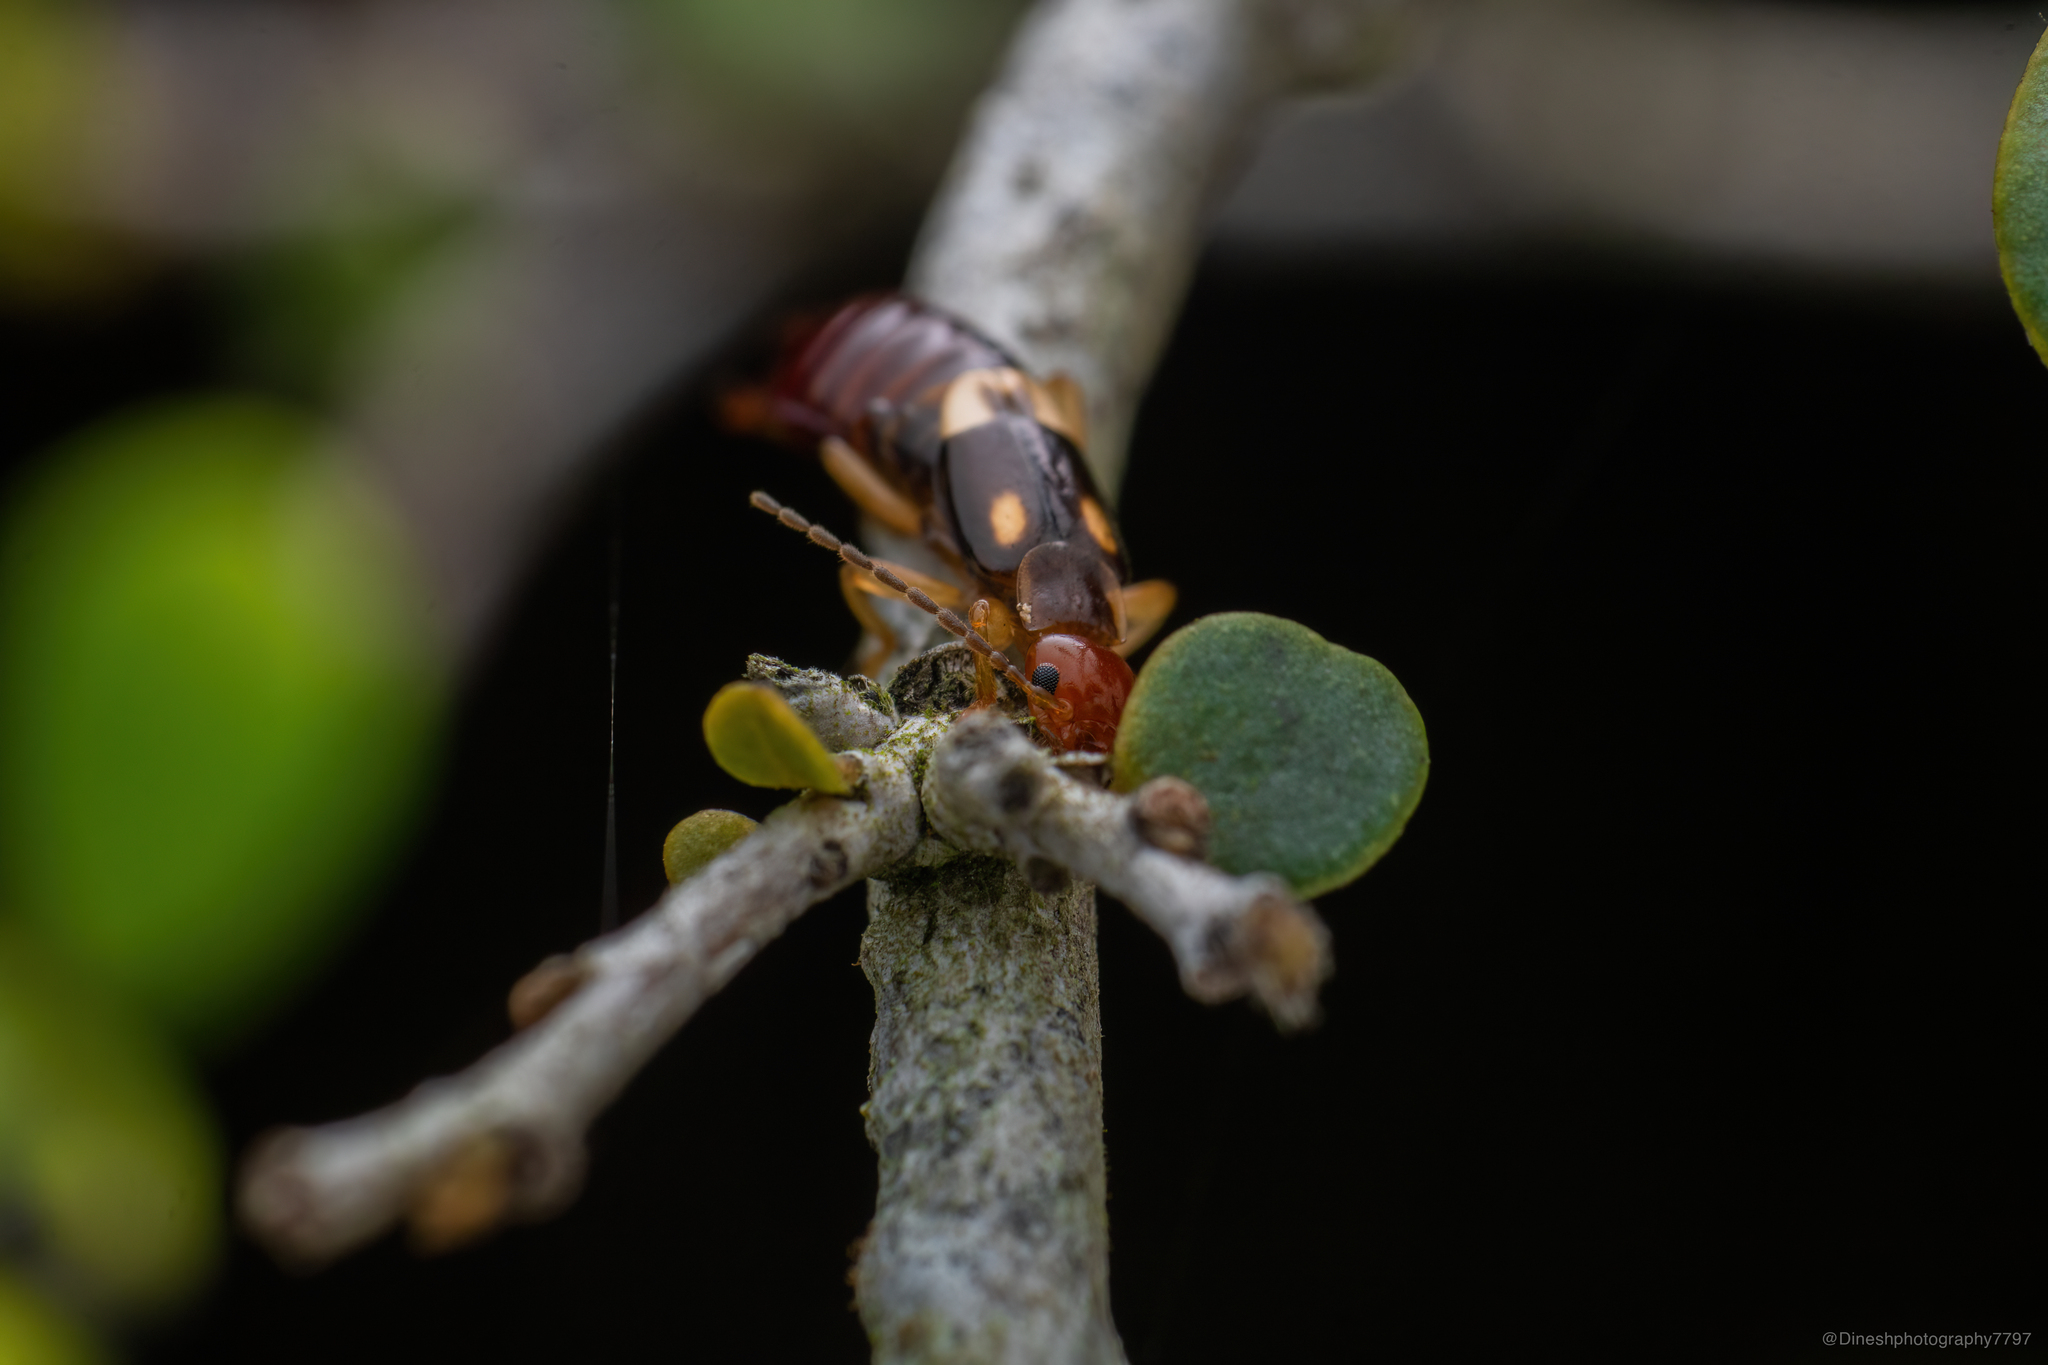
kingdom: Animalia
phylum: Arthropoda
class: Insecta
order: Dermaptera
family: Forficulidae
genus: Forficula
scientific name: Forficula greeni
